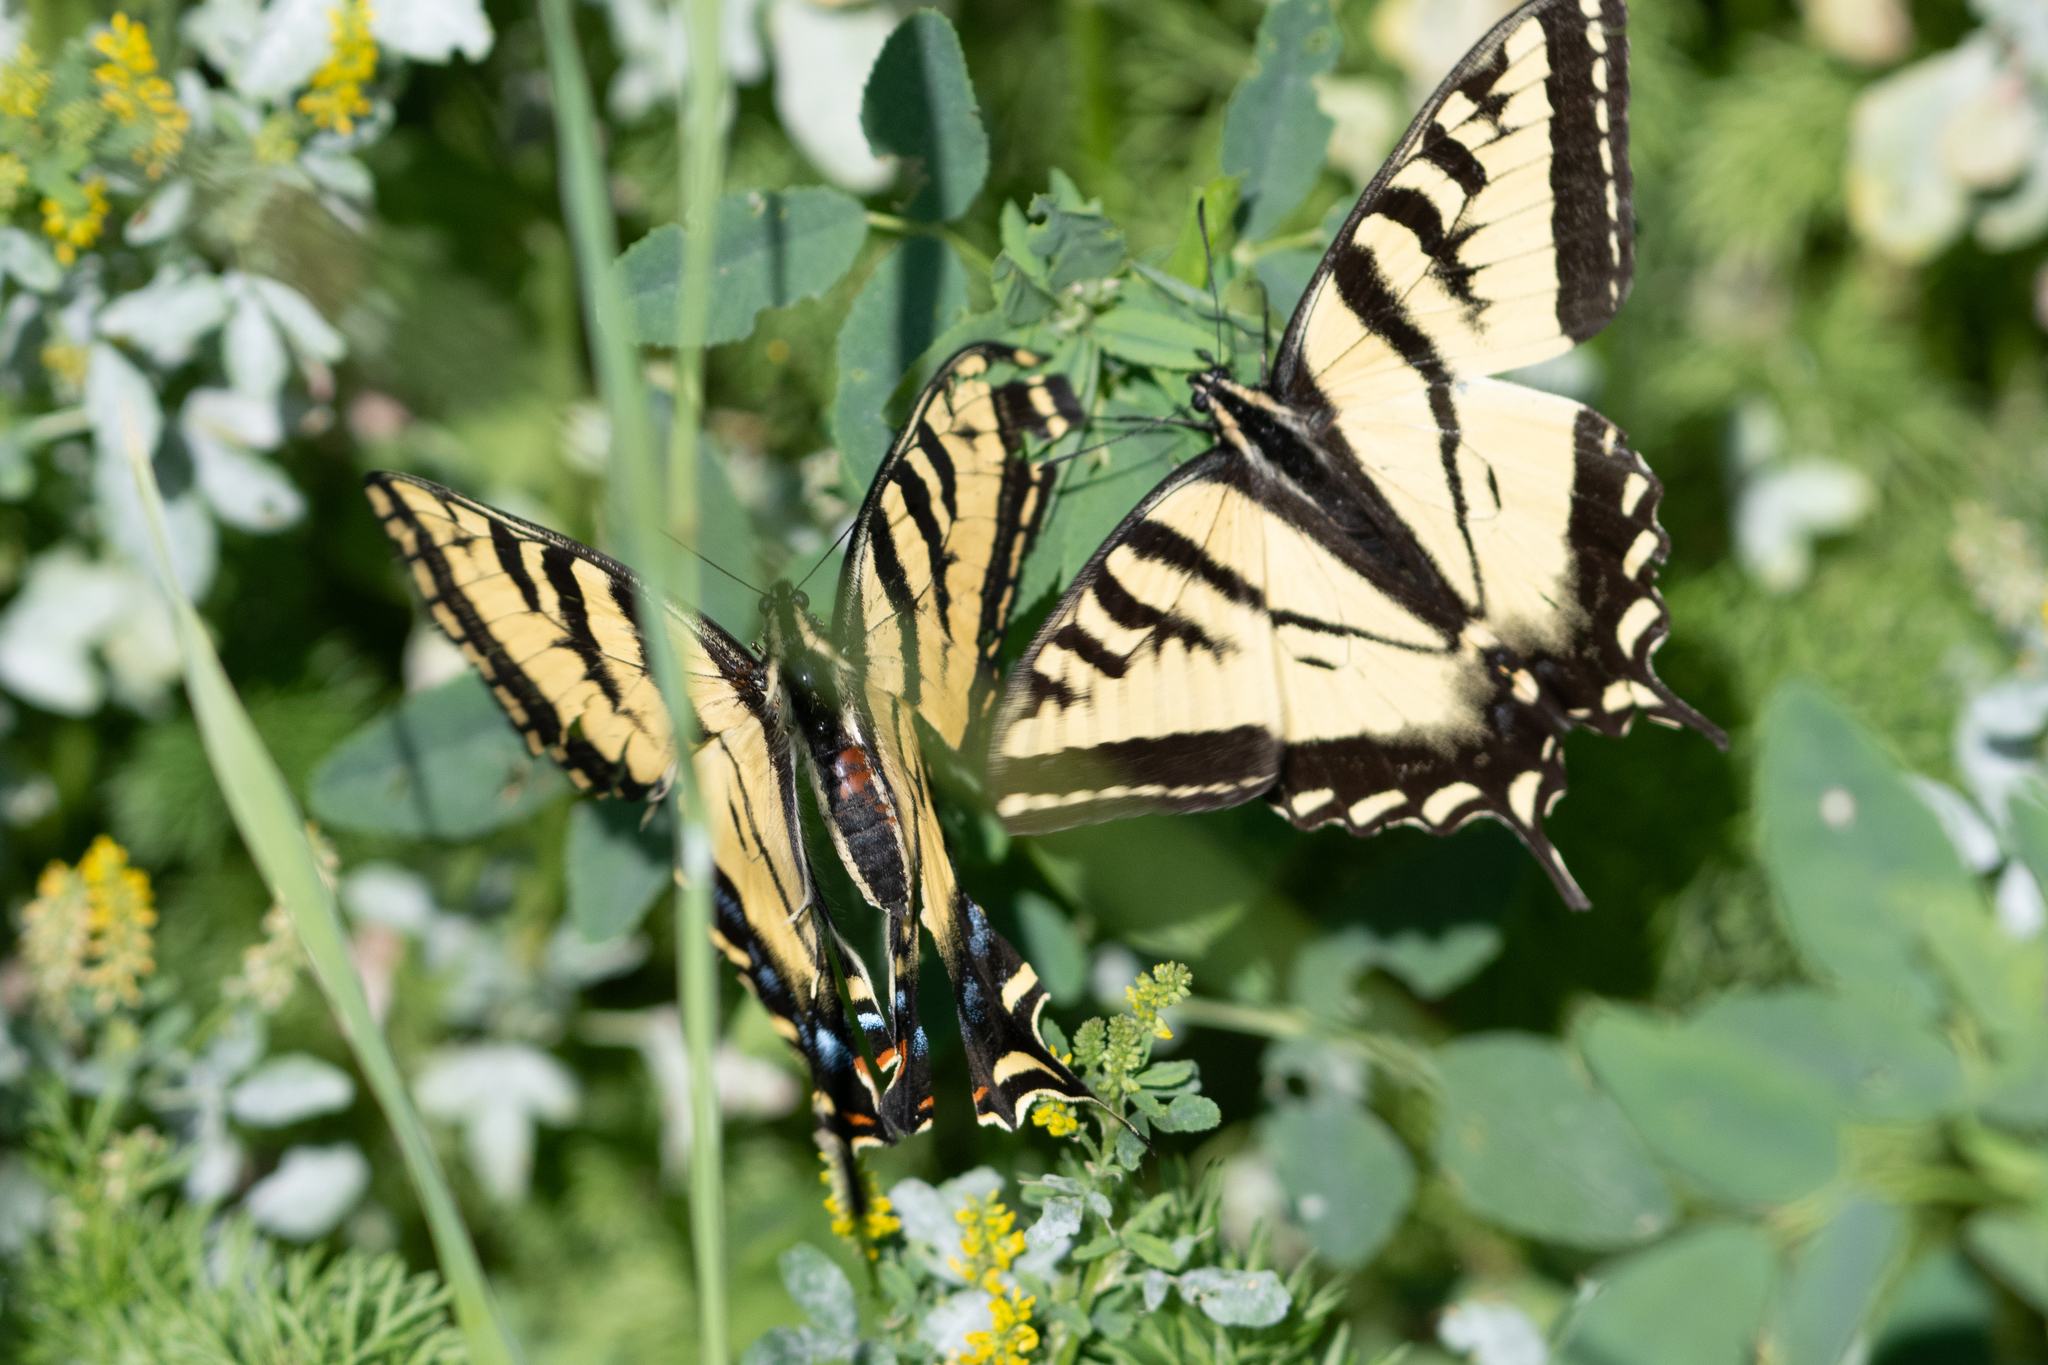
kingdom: Animalia
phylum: Arthropoda
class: Insecta
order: Lepidoptera
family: Papilionidae
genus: Papilio
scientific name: Papilio rutulus
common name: Western tiger swallowtail
